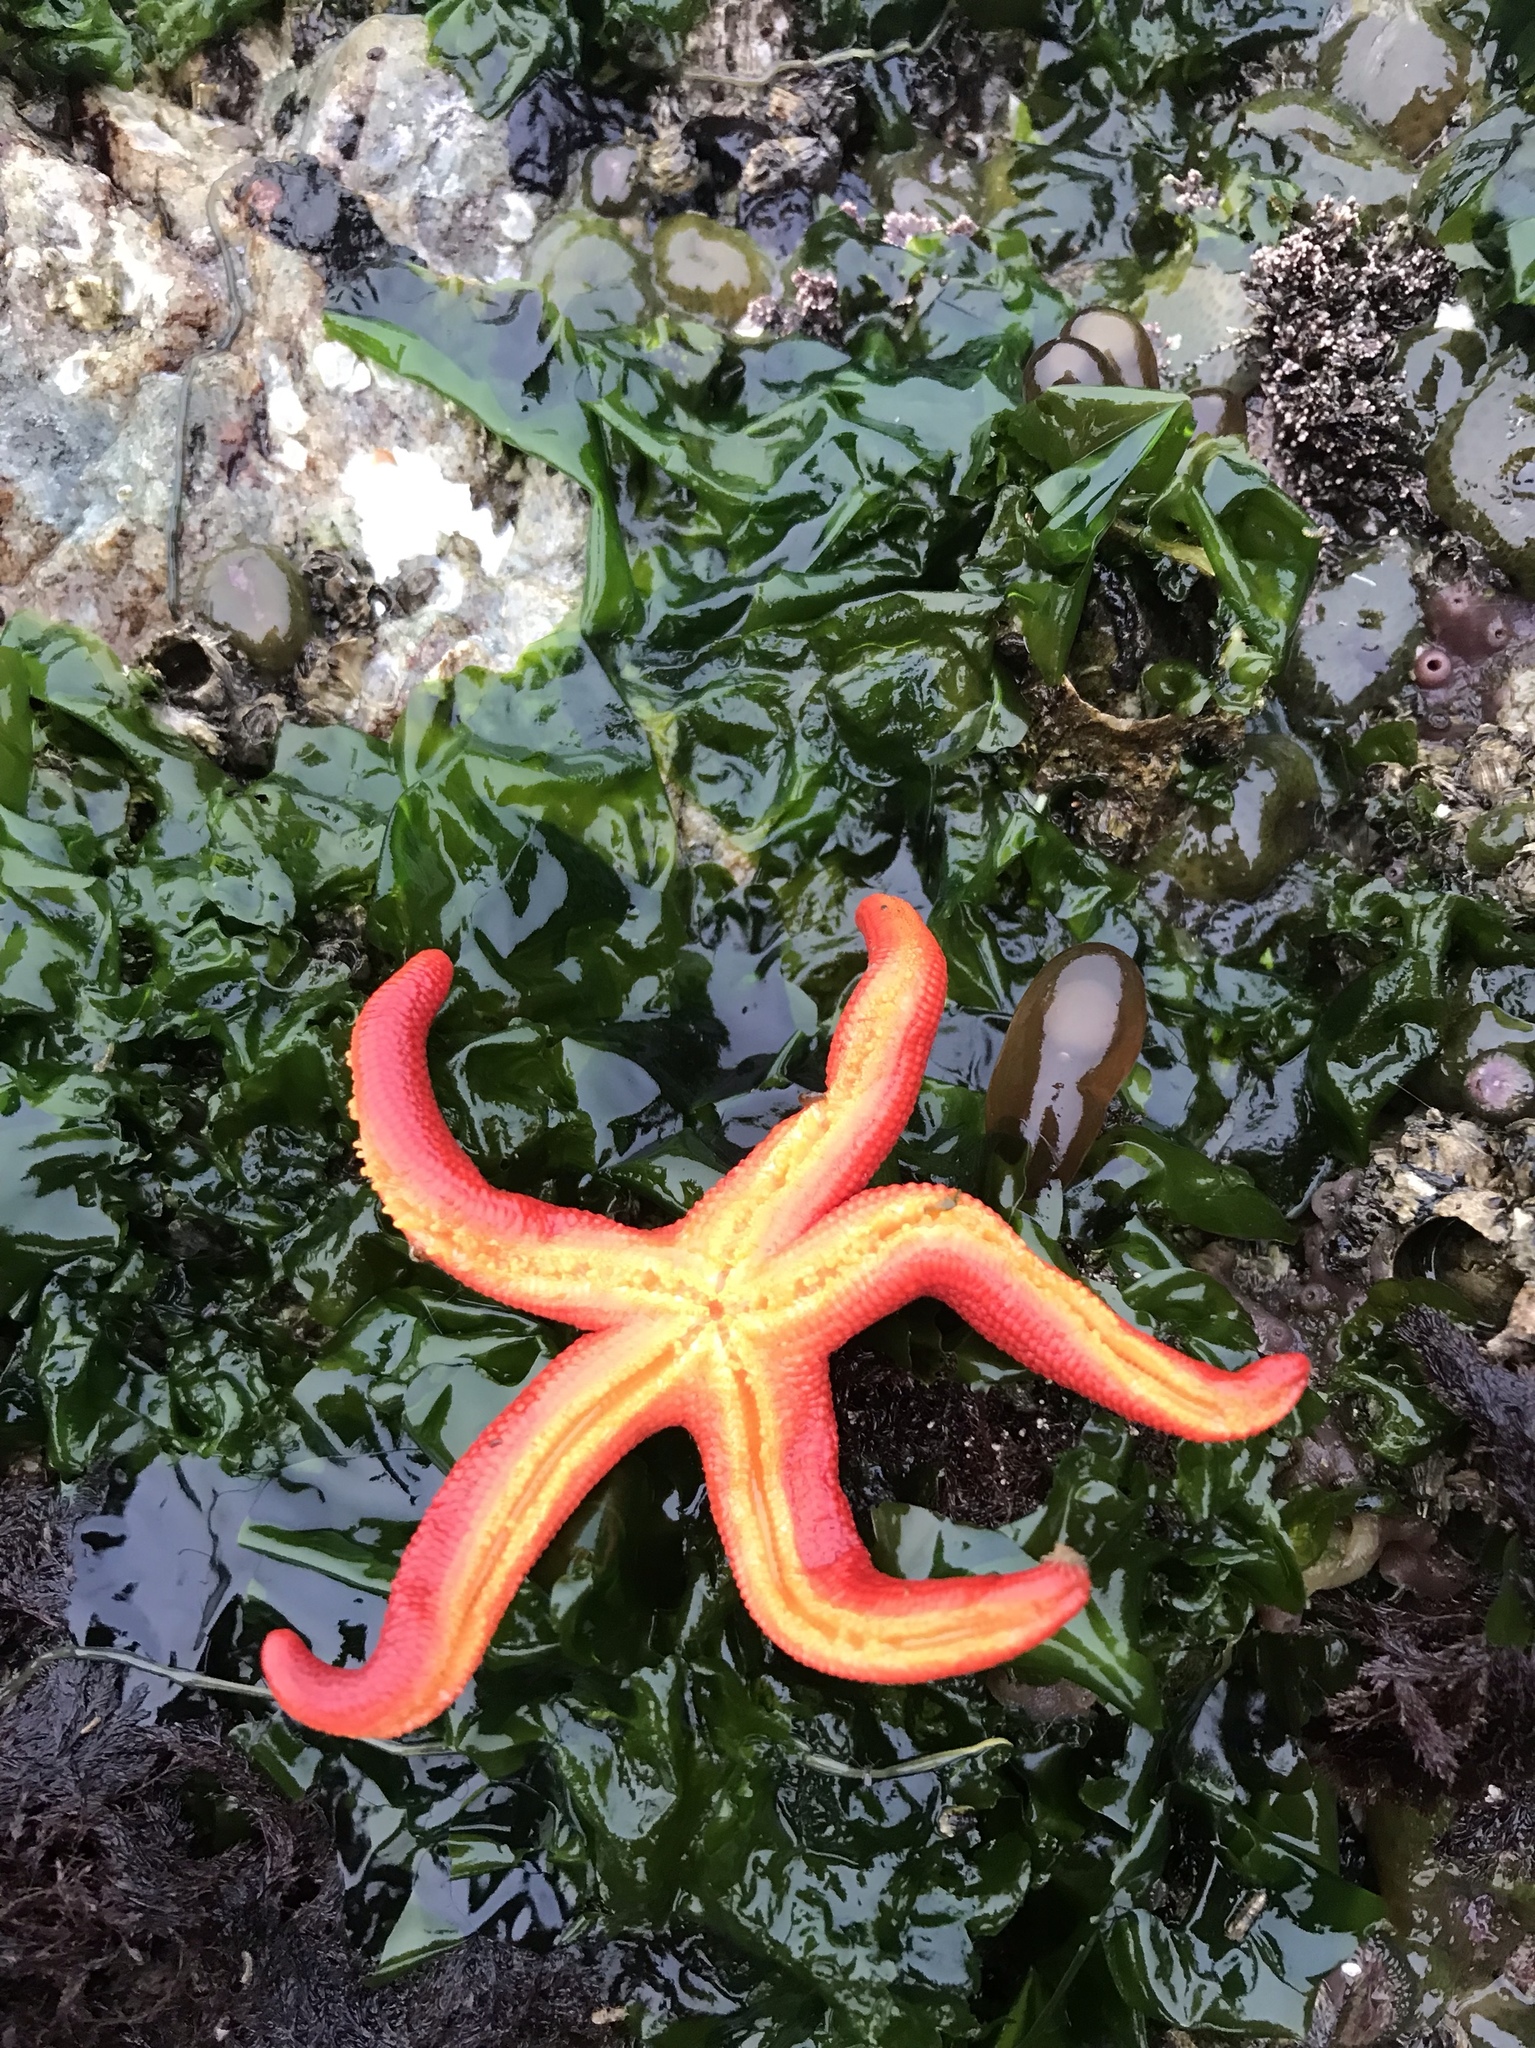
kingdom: Animalia
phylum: Echinodermata
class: Asteroidea
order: Spinulosida
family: Echinasteridae
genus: Henricia
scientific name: Henricia leviuscula
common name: Pacific blood star
